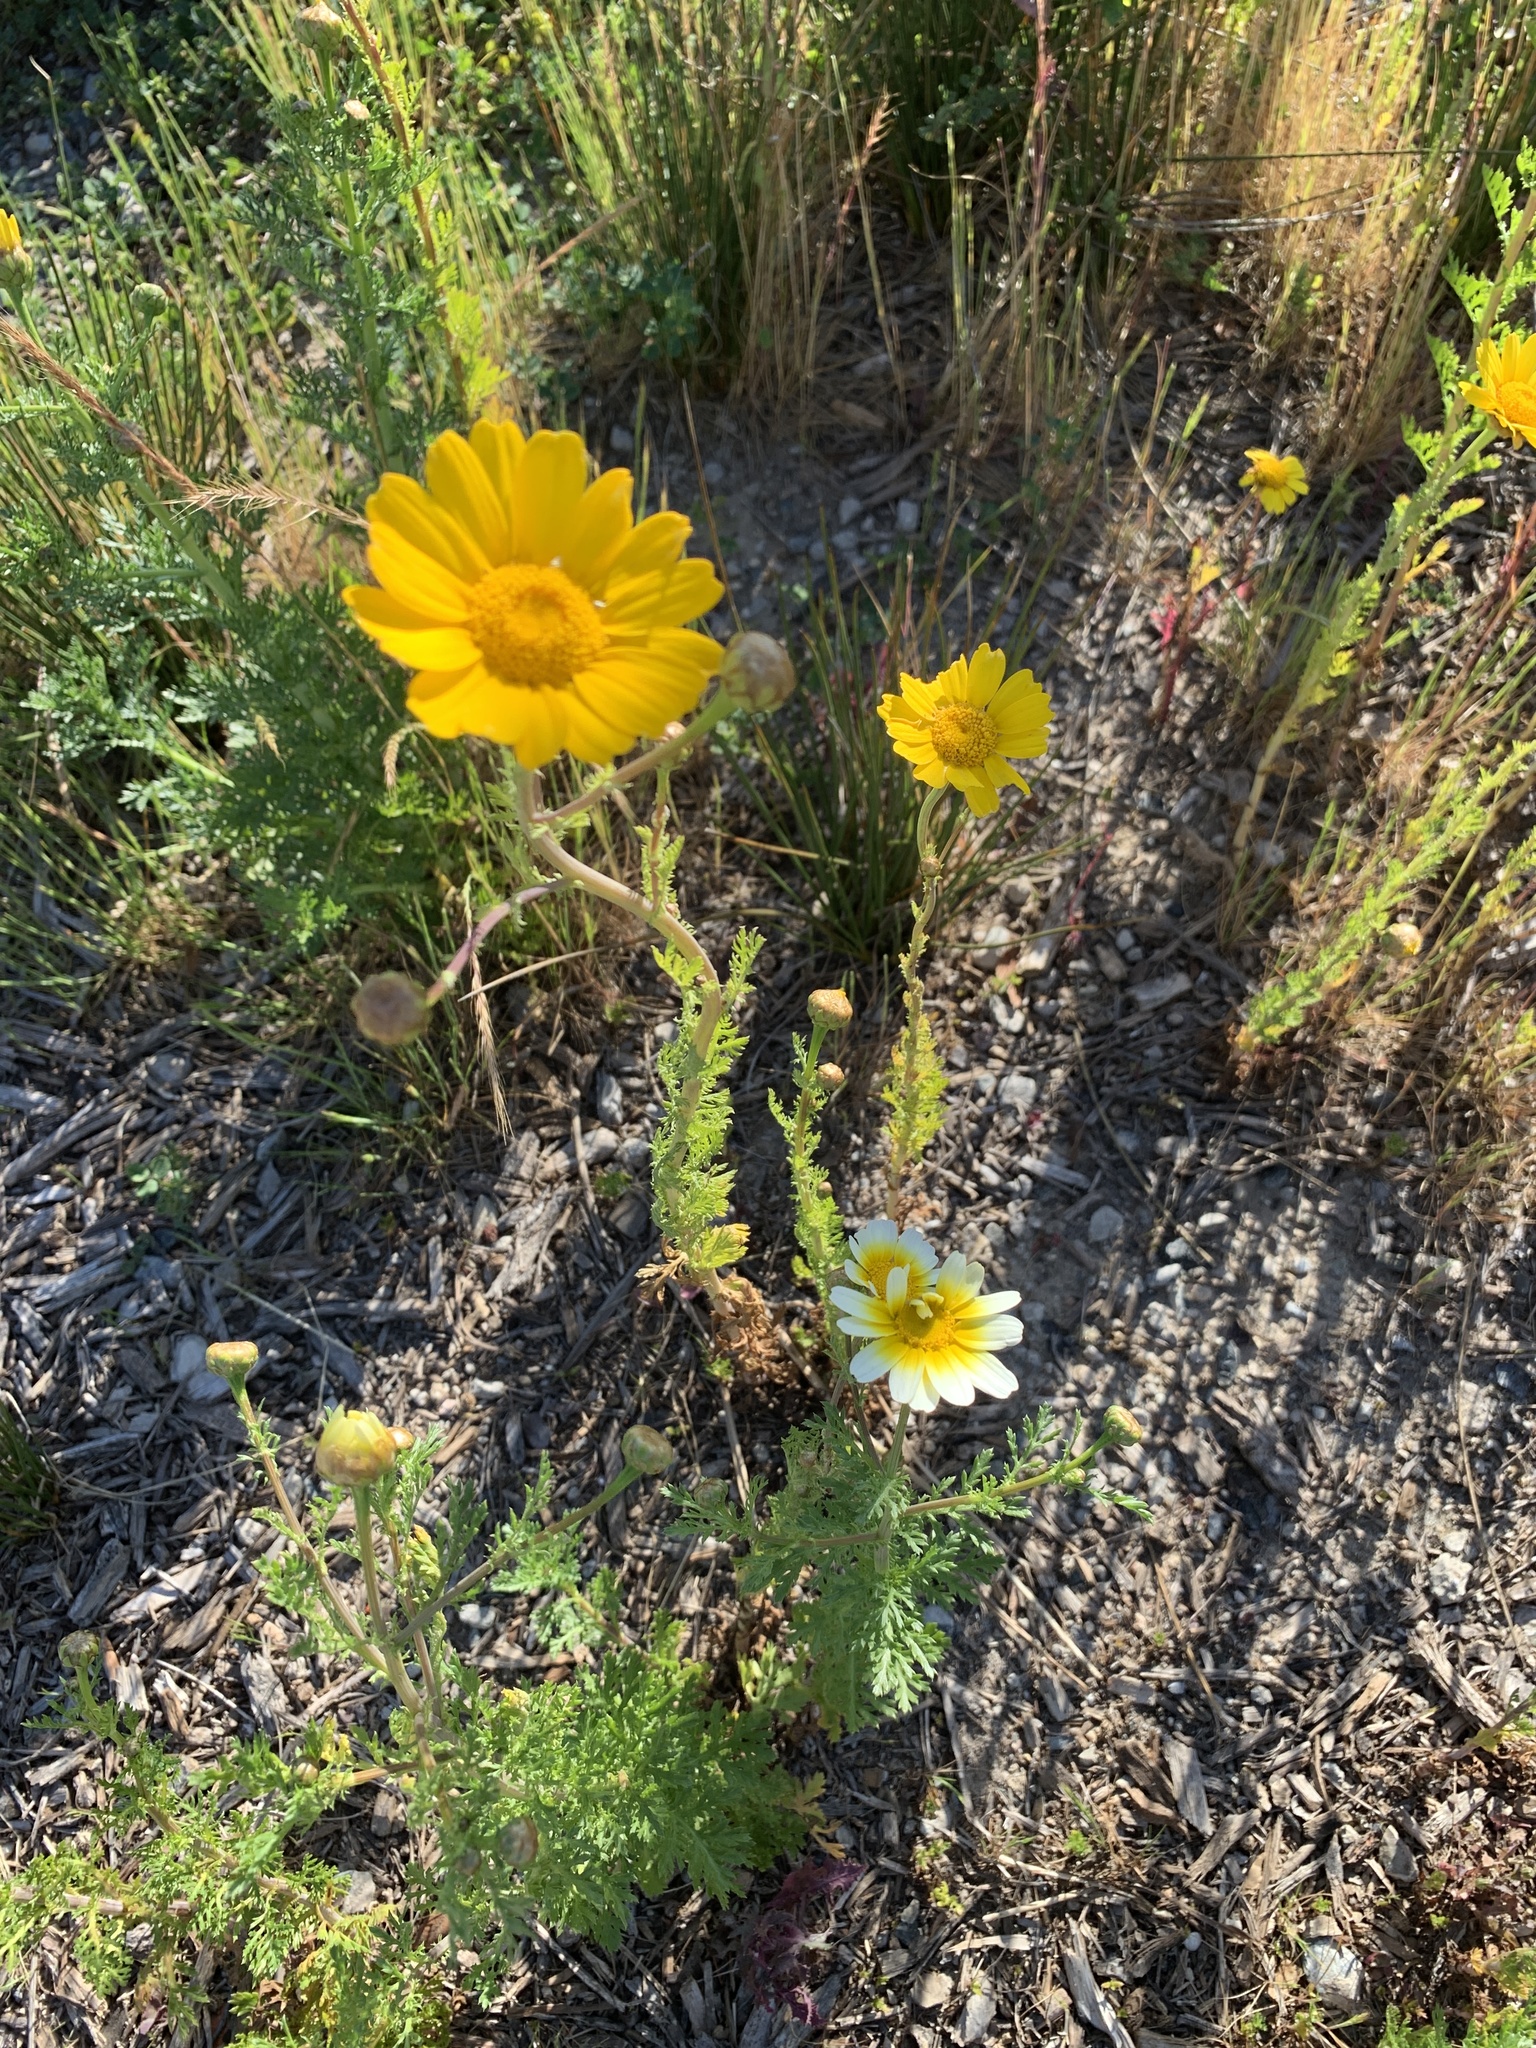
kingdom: Plantae
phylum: Tracheophyta
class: Magnoliopsida
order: Asterales
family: Asteraceae
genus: Glebionis
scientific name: Glebionis coronaria
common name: Crowndaisy
